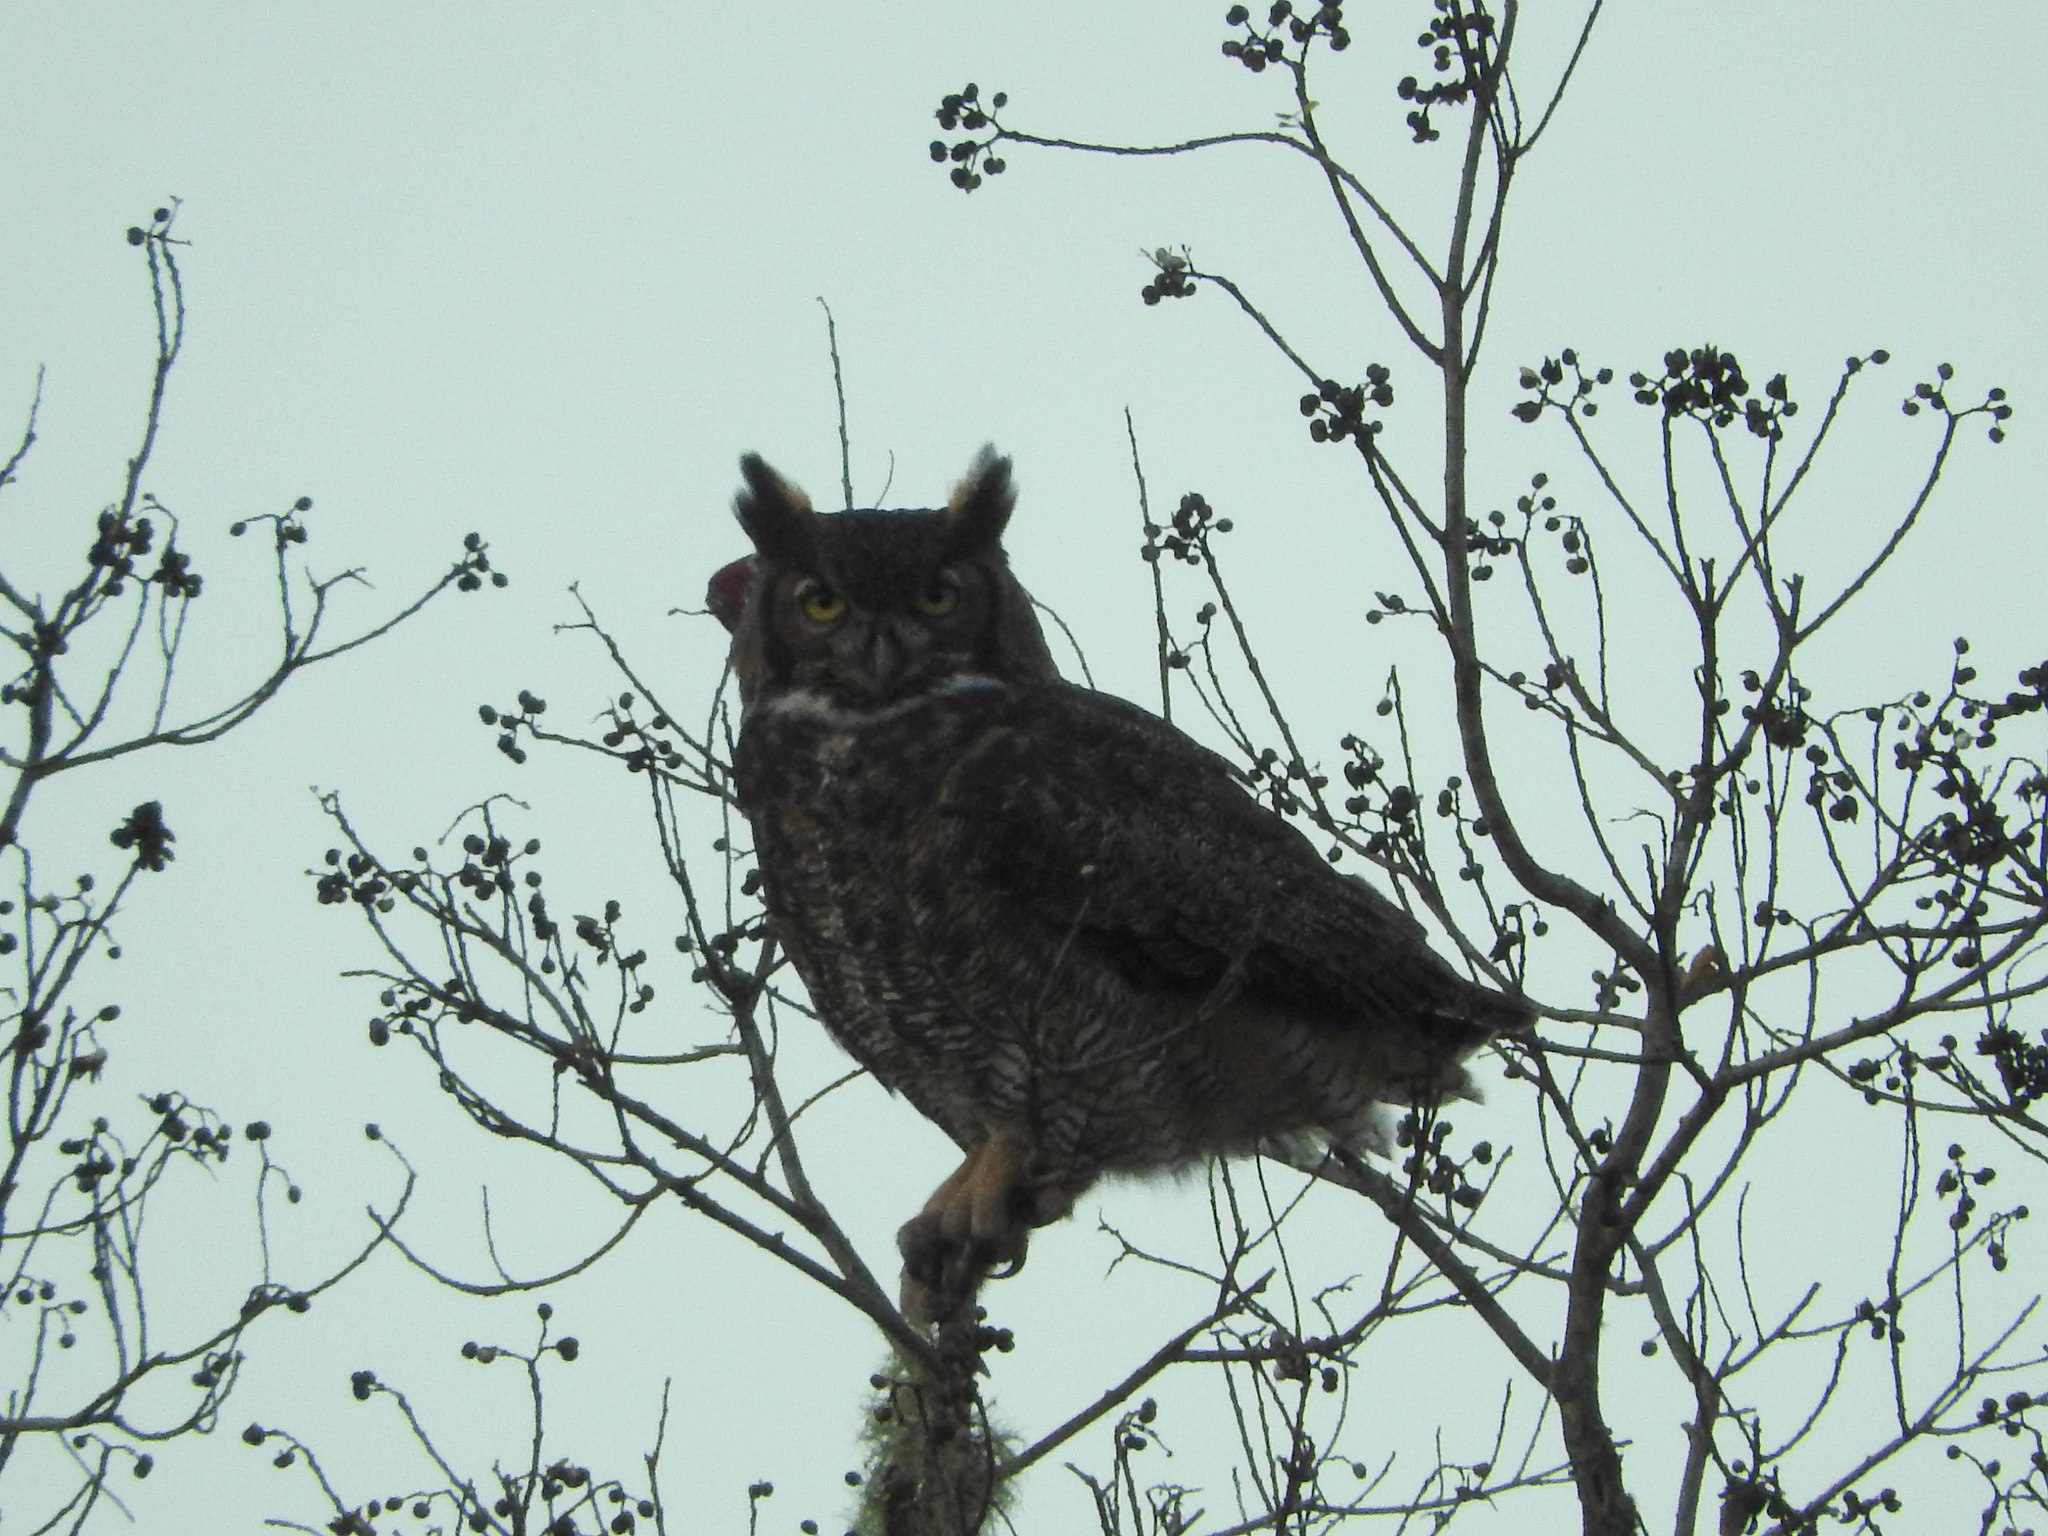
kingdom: Animalia
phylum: Chordata
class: Aves
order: Strigiformes
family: Strigidae
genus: Bubo
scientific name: Bubo virginianus
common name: Great horned owl
